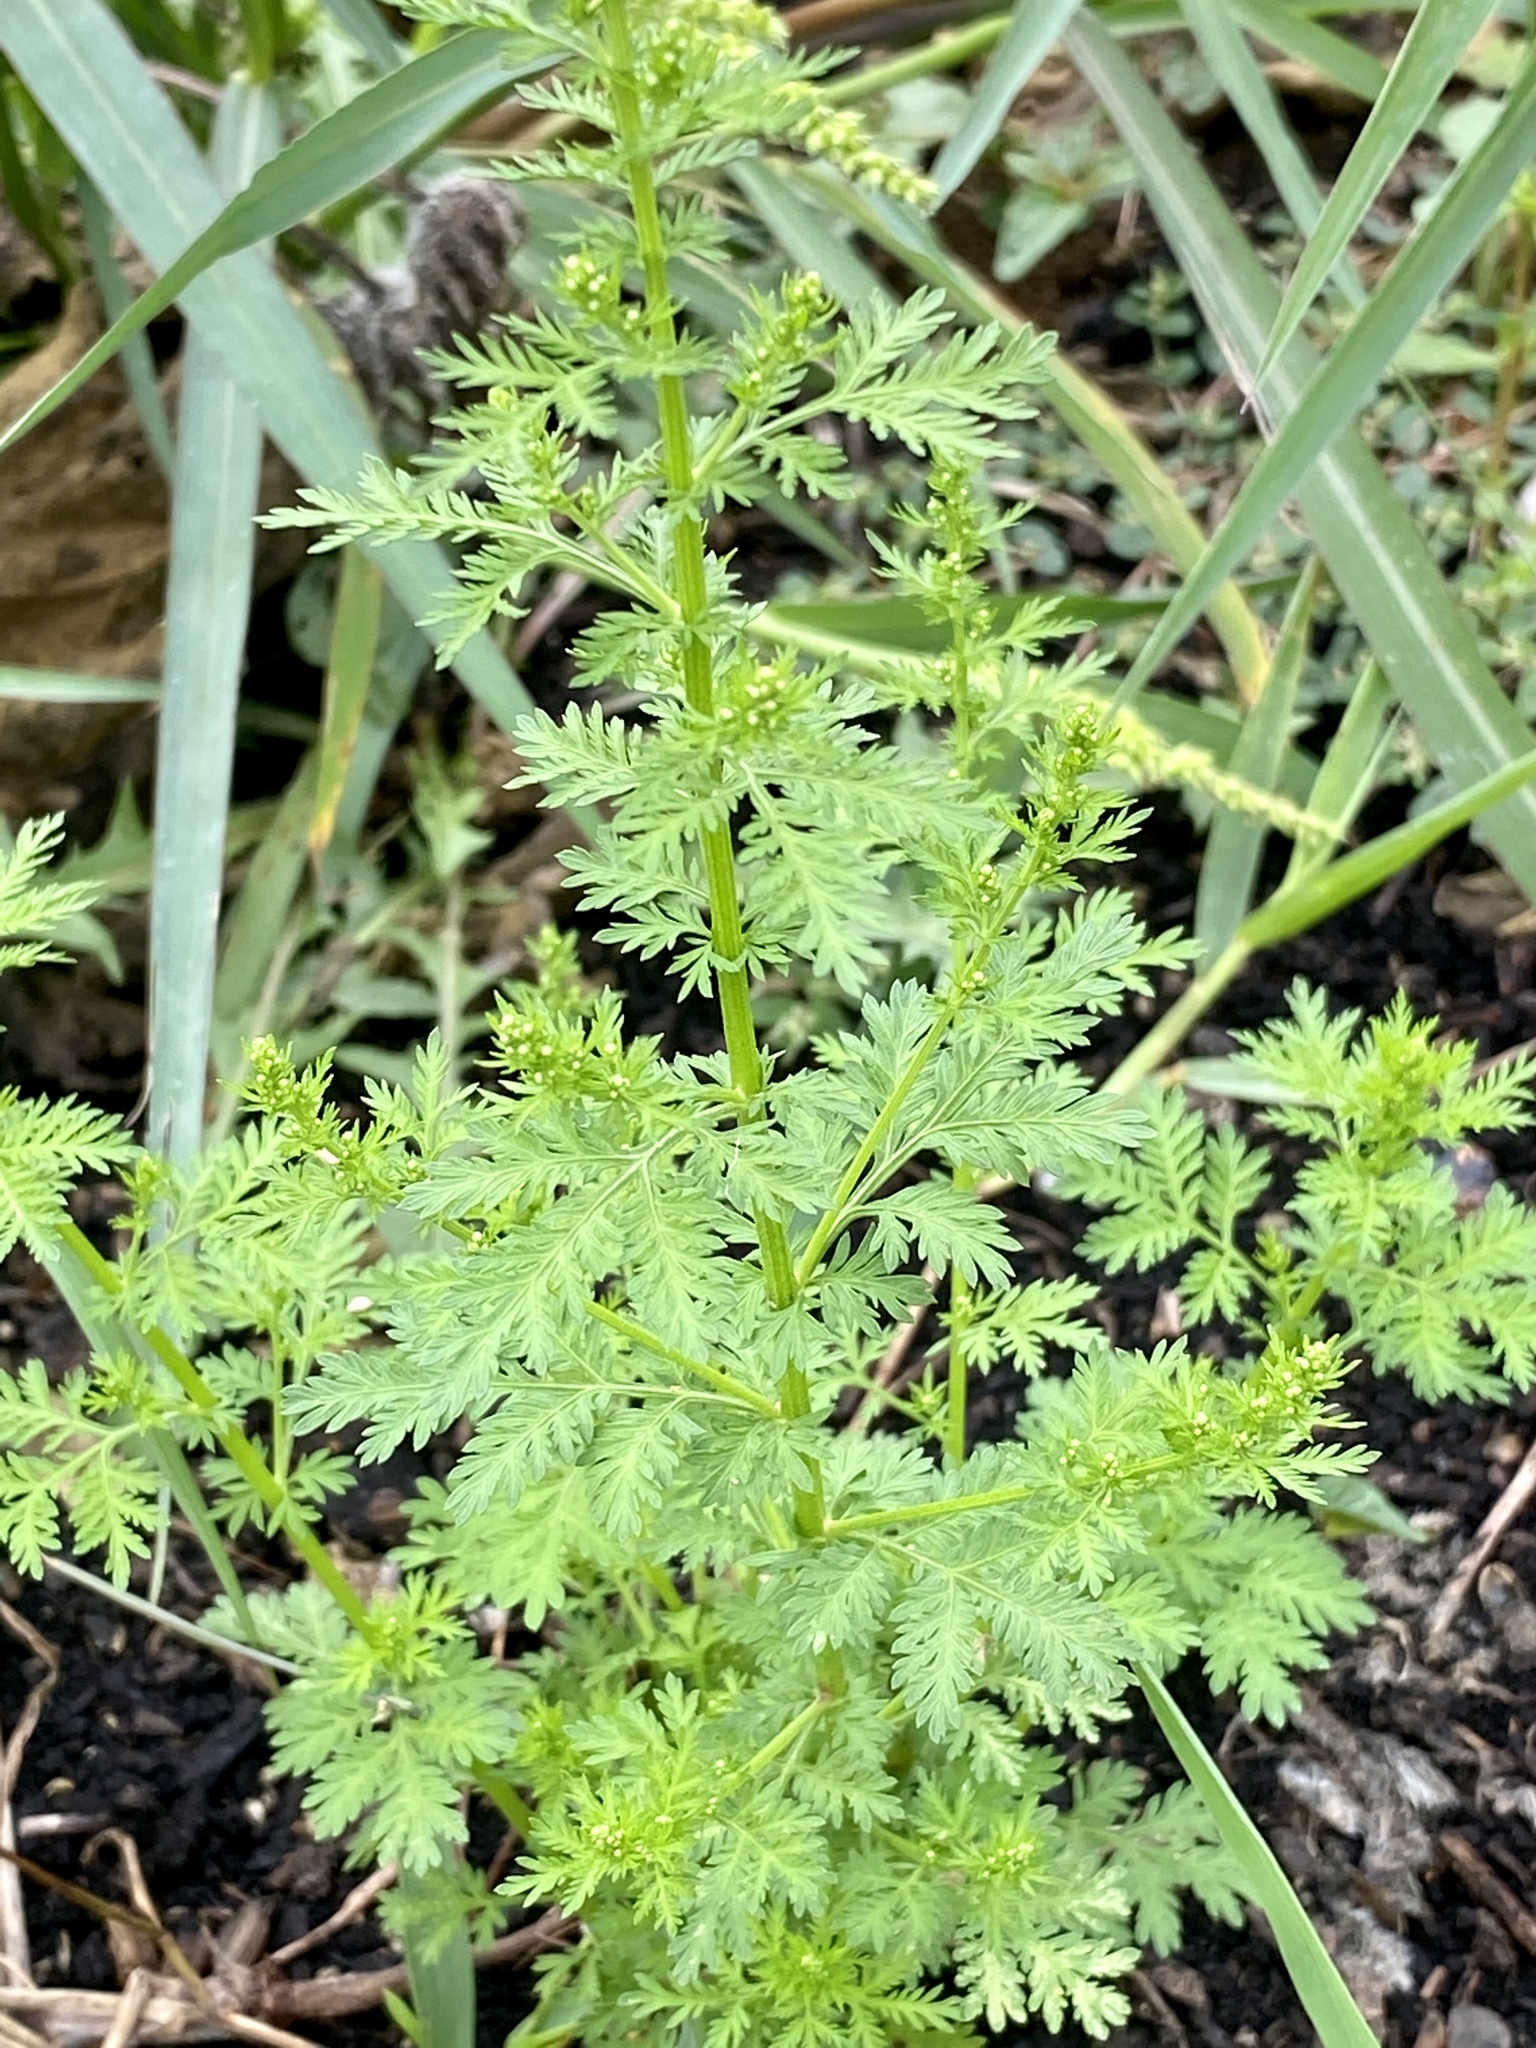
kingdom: Plantae
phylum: Tracheophyta
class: Magnoliopsida
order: Asterales
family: Asteraceae
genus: Artemisia
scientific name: Artemisia annua
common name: Sweet sagewort
